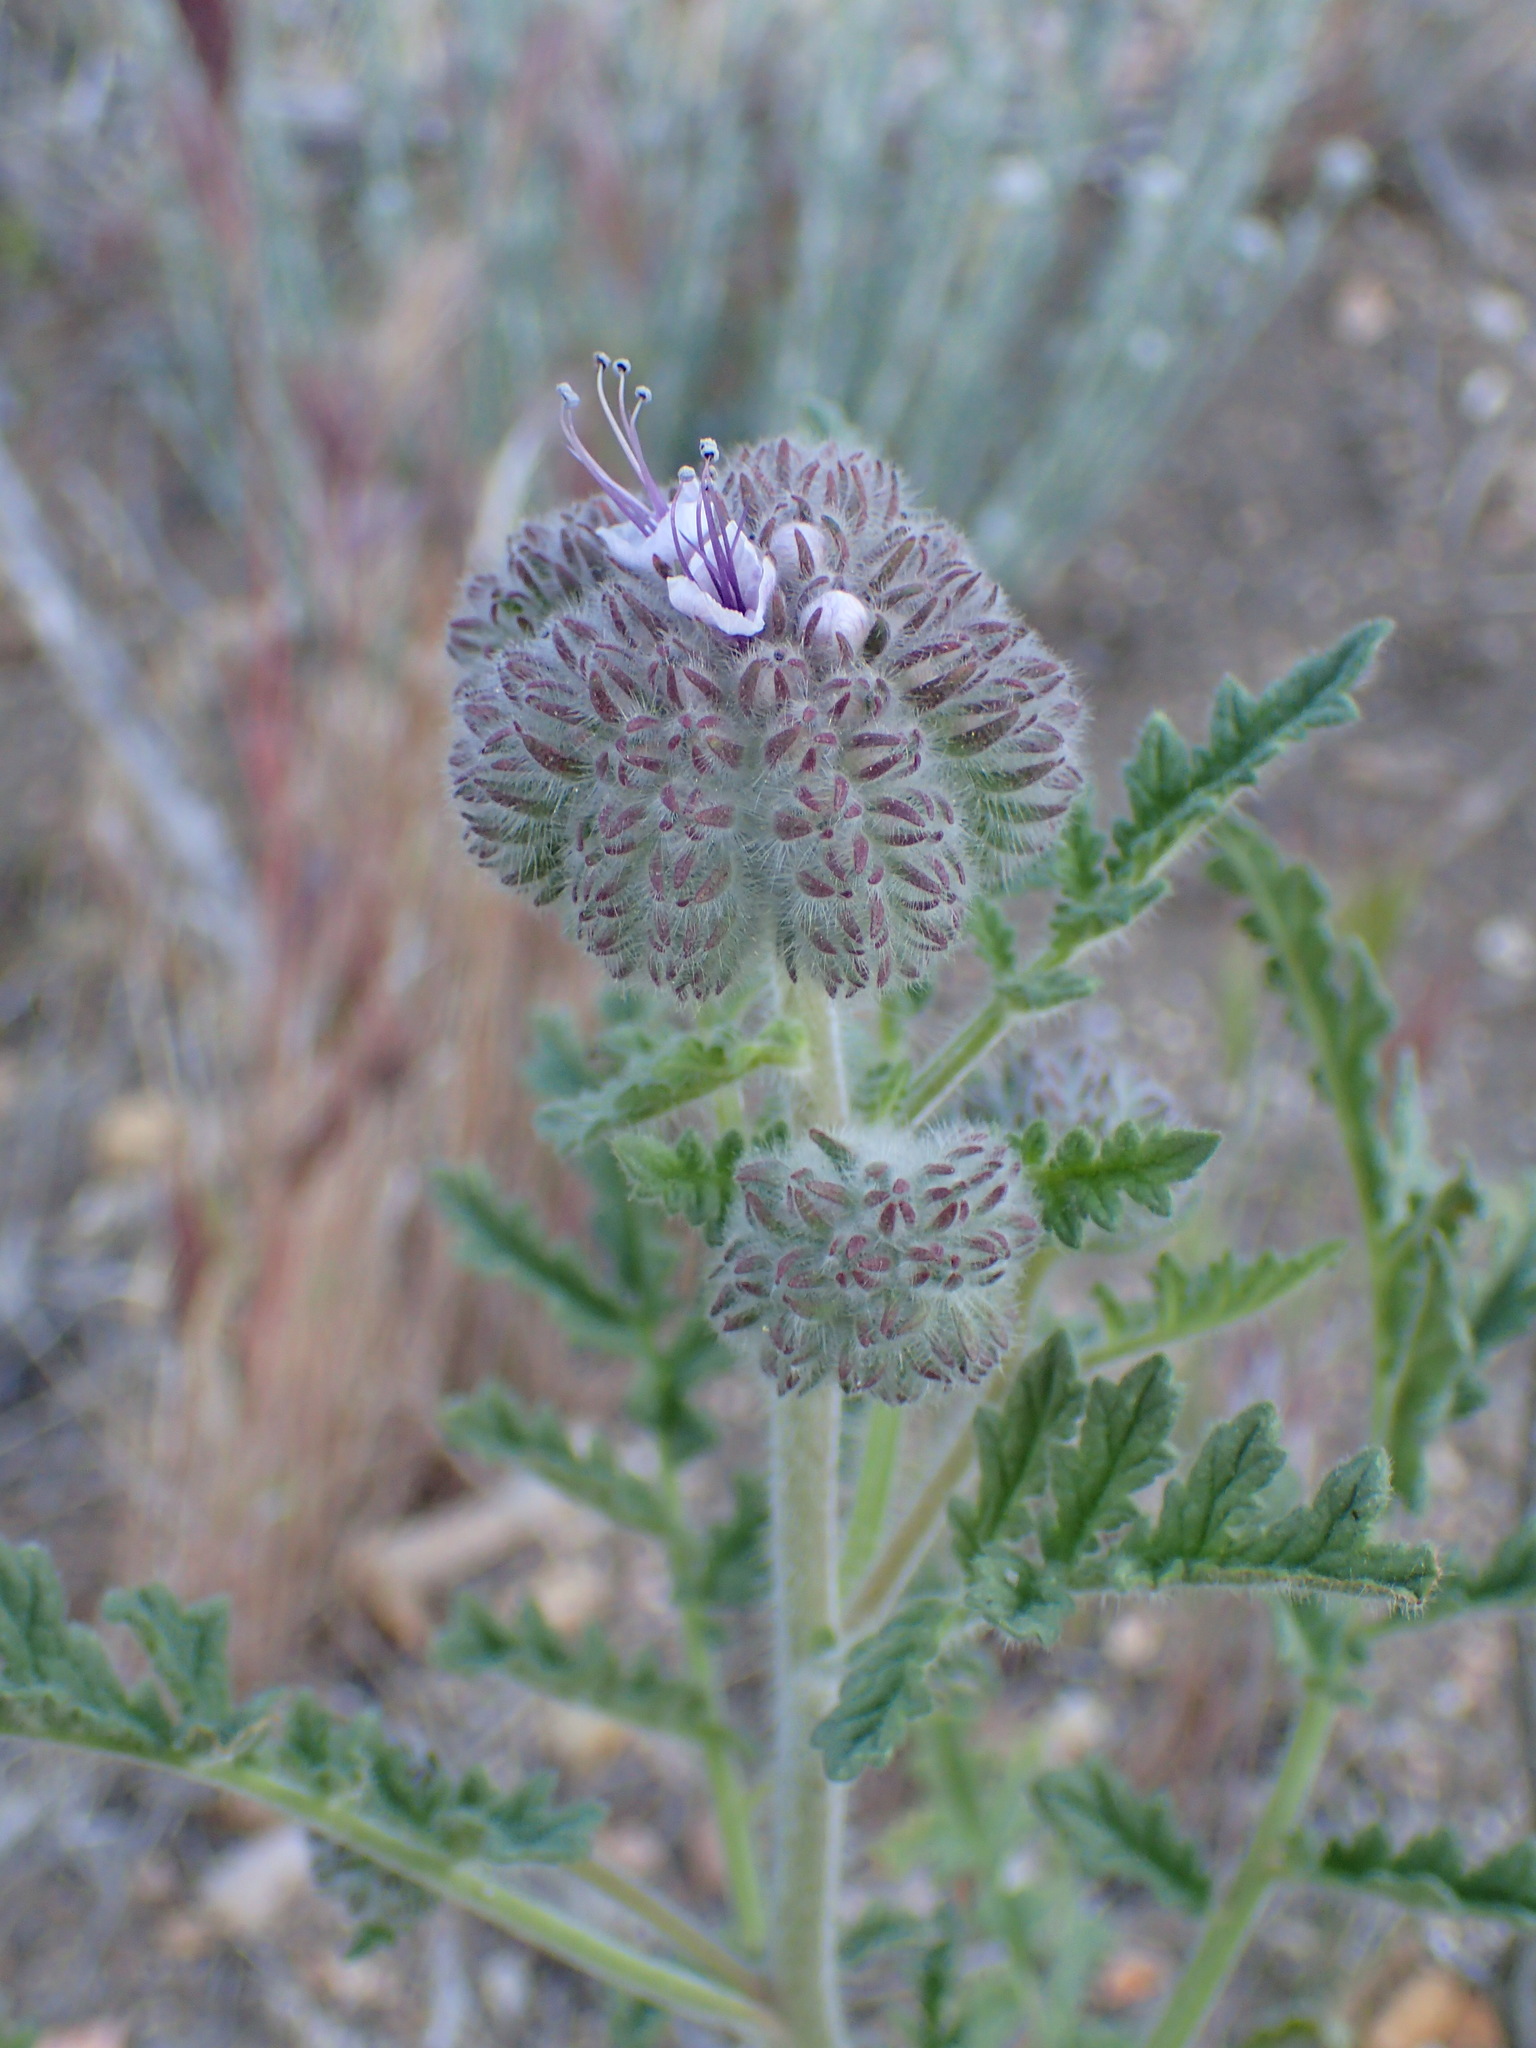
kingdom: Plantae
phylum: Tracheophyta
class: Magnoliopsida
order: Boraginales
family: Hydrophyllaceae
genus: Phacelia
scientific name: Phacelia hubbyi
